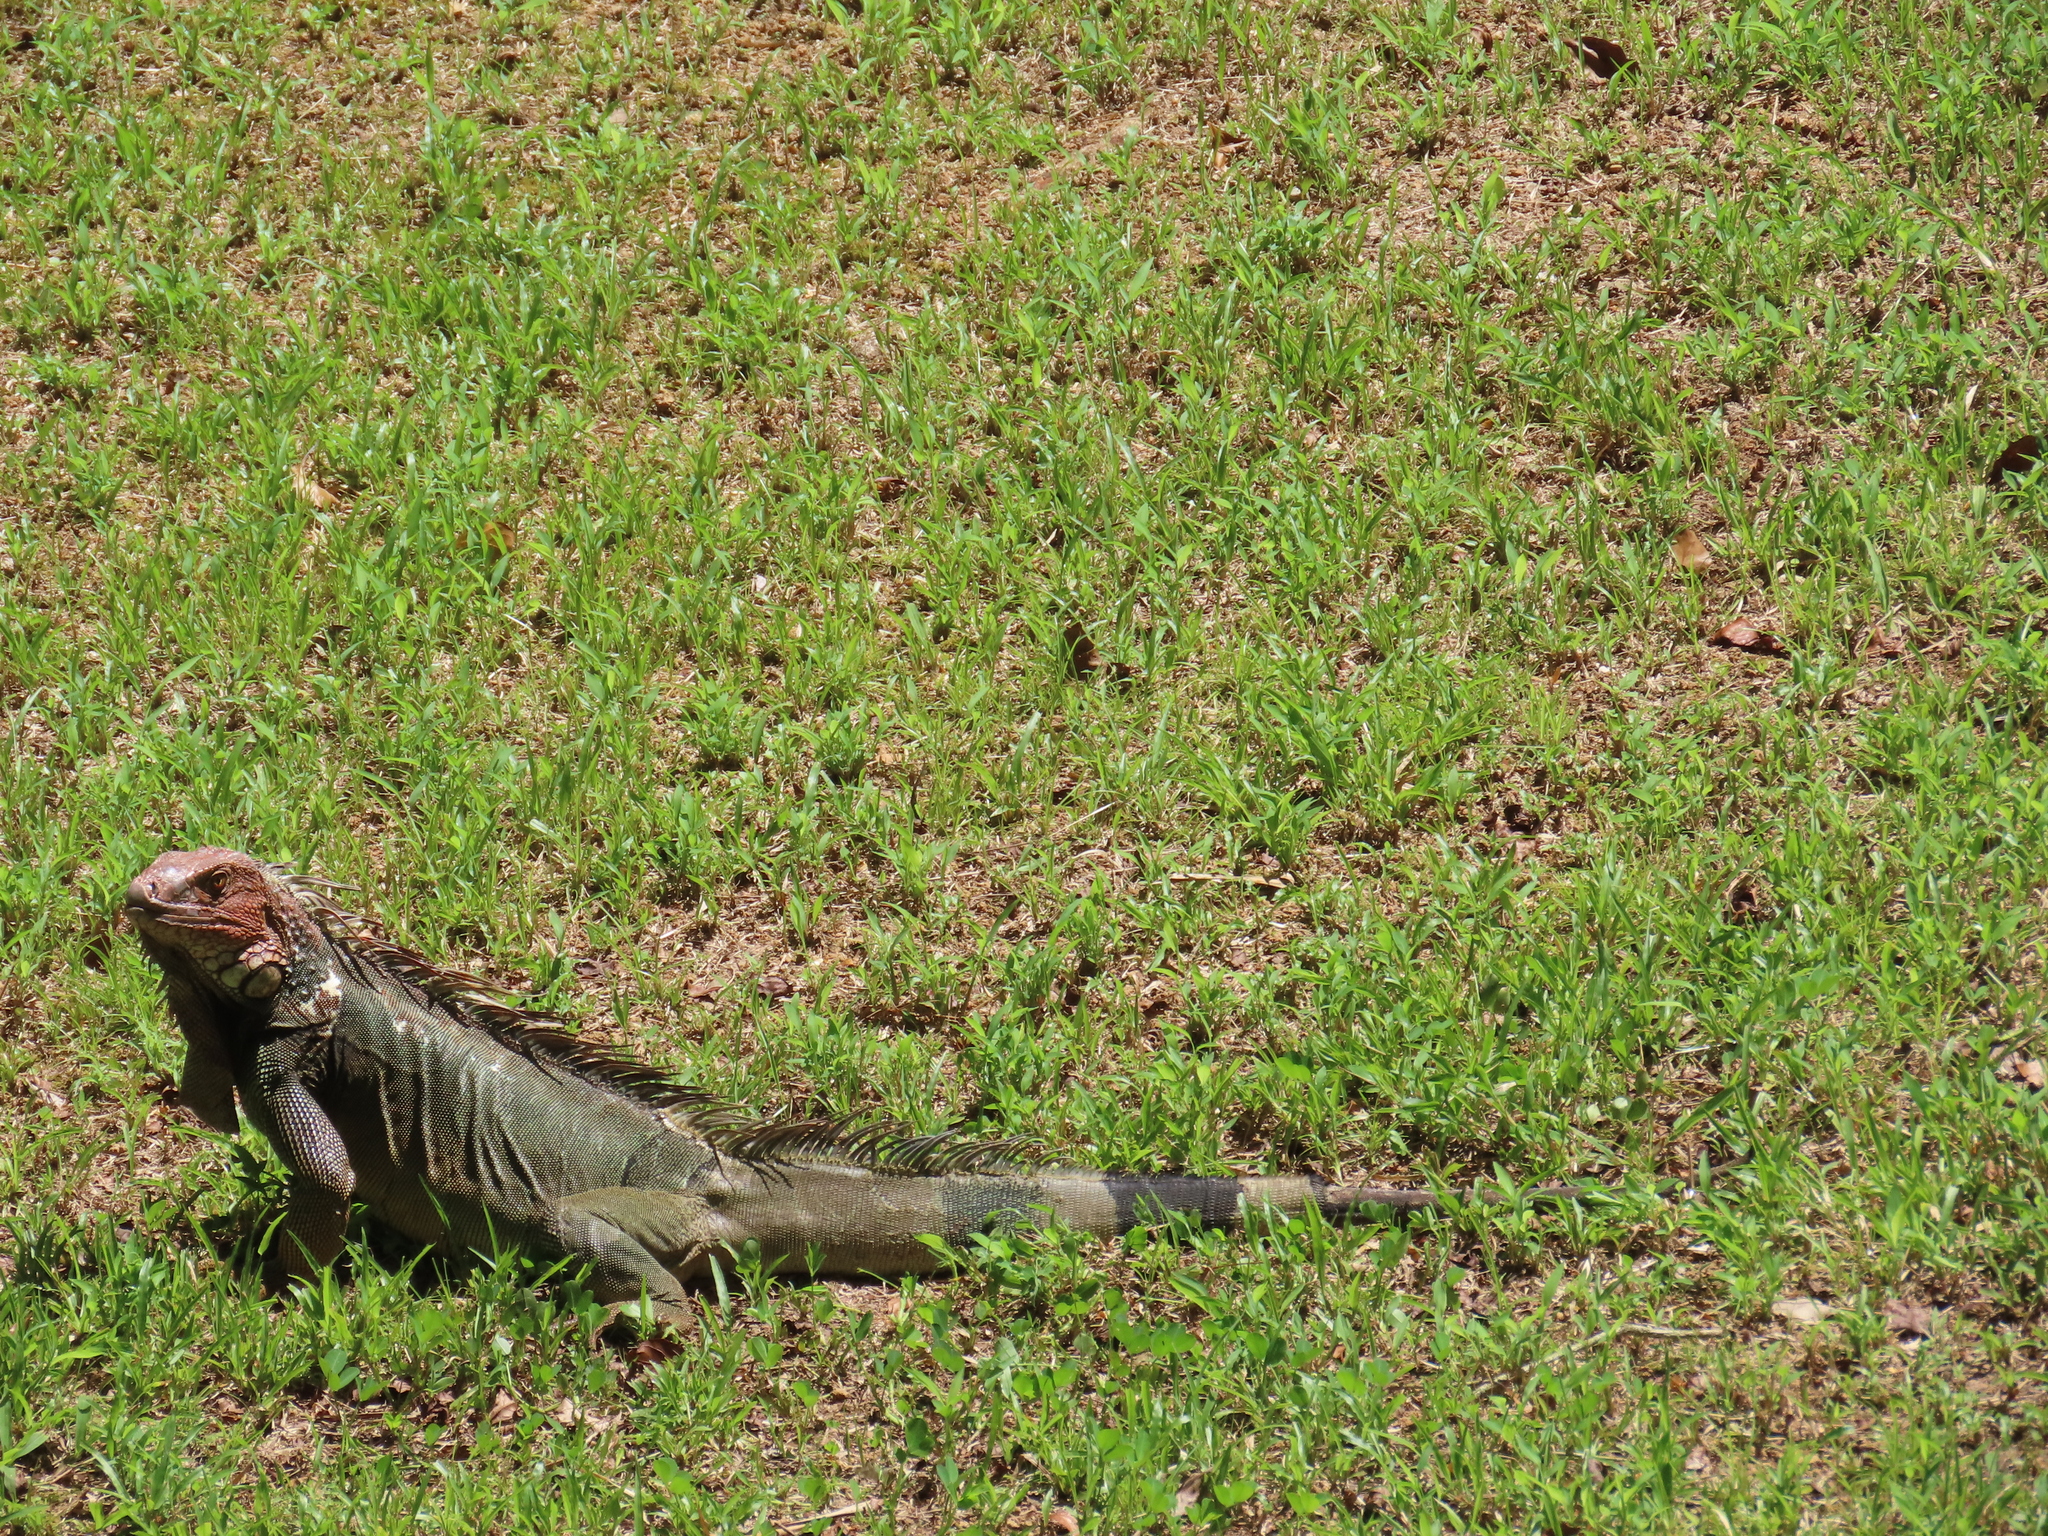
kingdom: Animalia
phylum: Chordata
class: Squamata
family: Iguanidae
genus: Iguana
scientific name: Iguana iguana
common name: Green iguana
